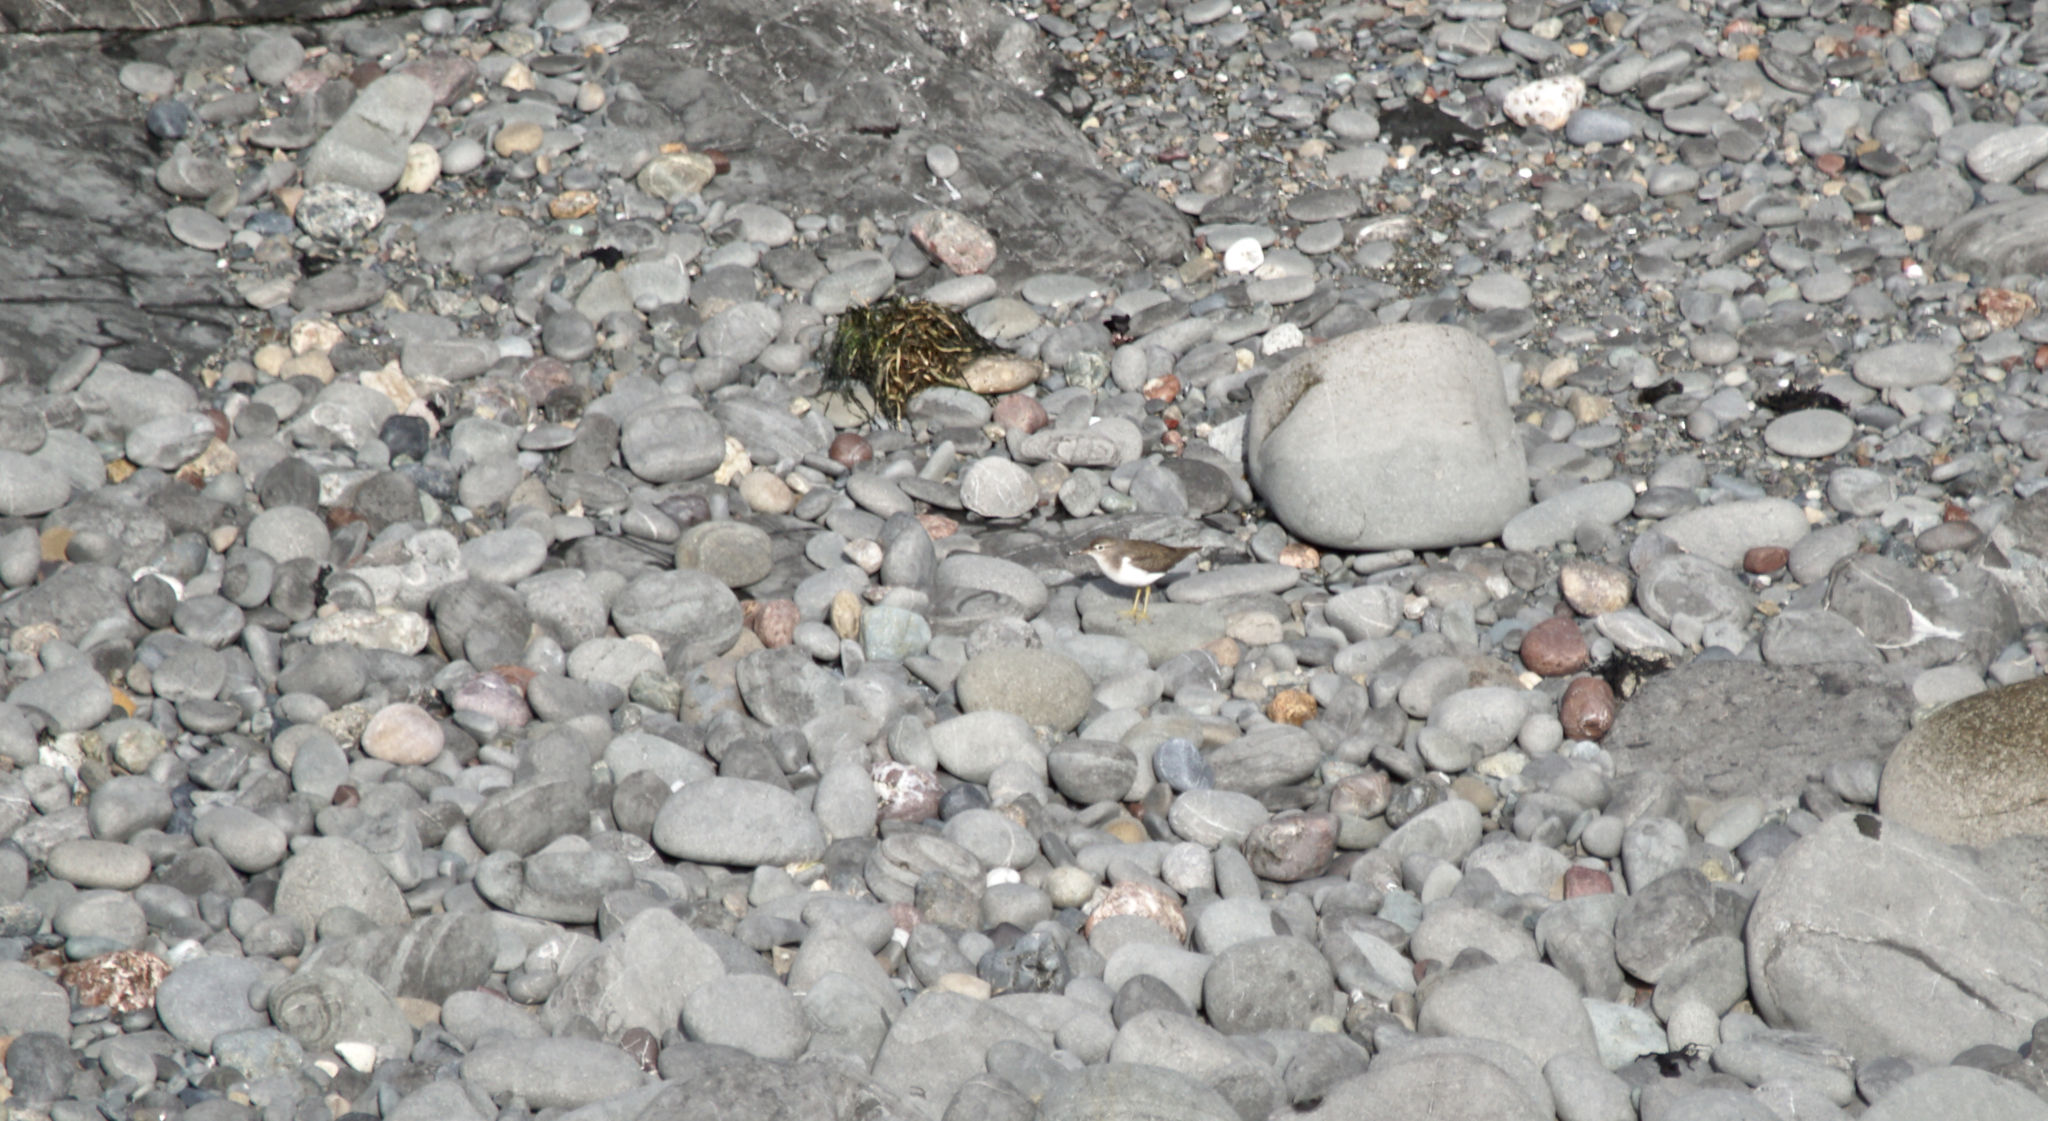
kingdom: Animalia
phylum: Chordata
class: Aves
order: Charadriiformes
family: Scolopacidae
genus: Actitis
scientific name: Actitis macularius
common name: Spotted sandpiper
